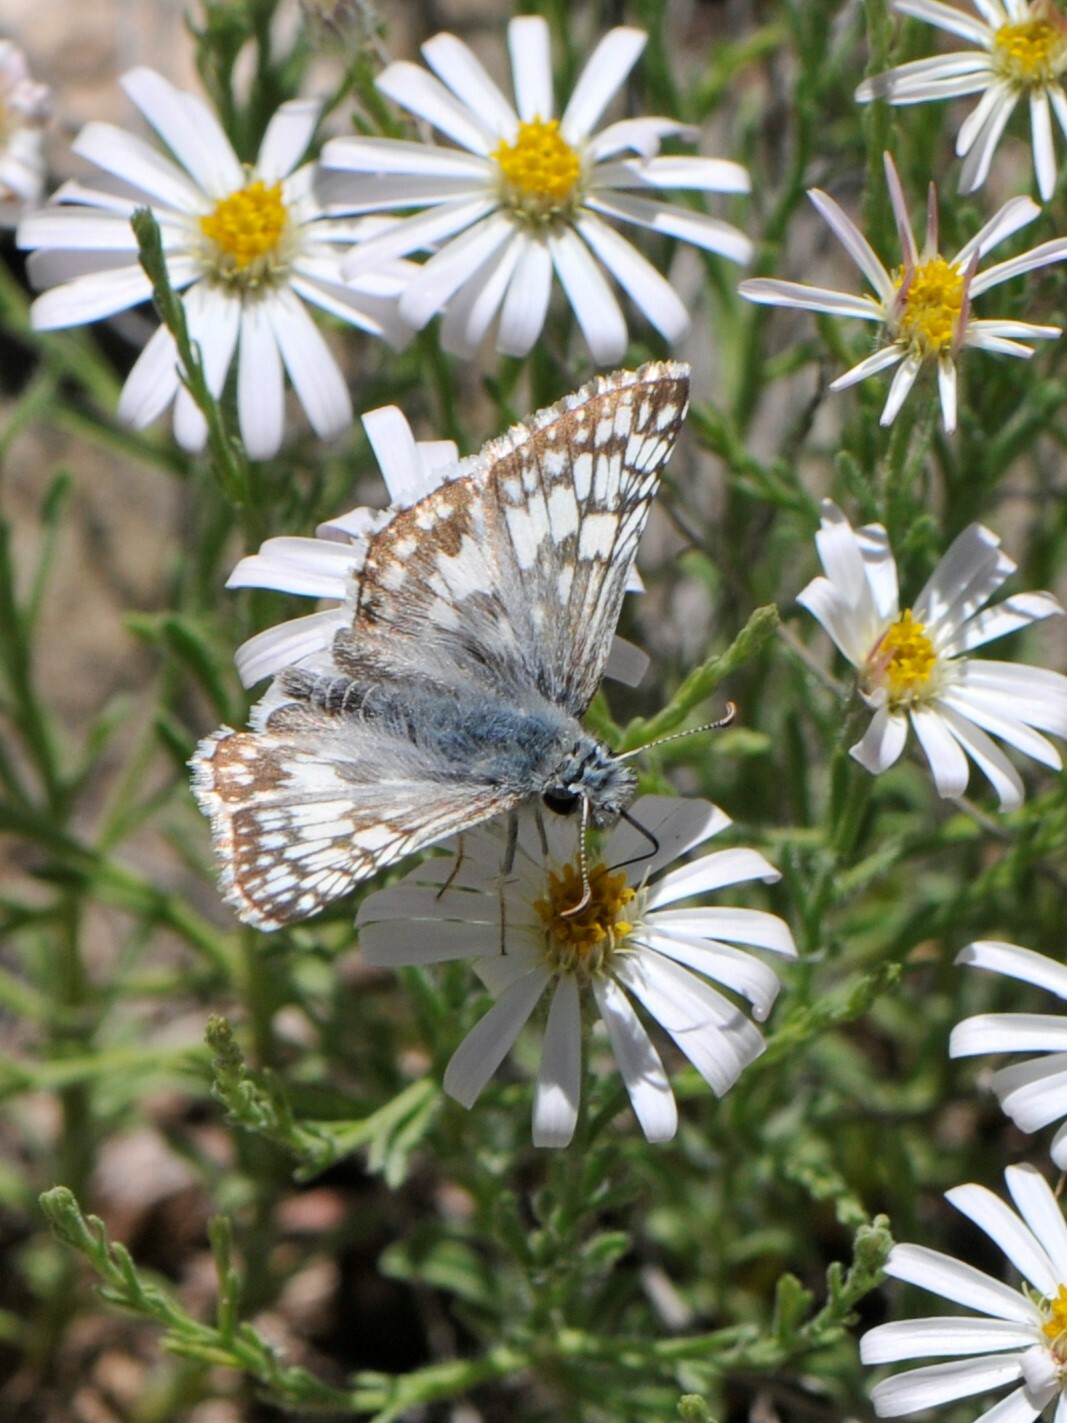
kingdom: Animalia
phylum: Arthropoda
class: Insecta
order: Lepidoptera
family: Hesperiidae
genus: Burnsius
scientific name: Burnsius
